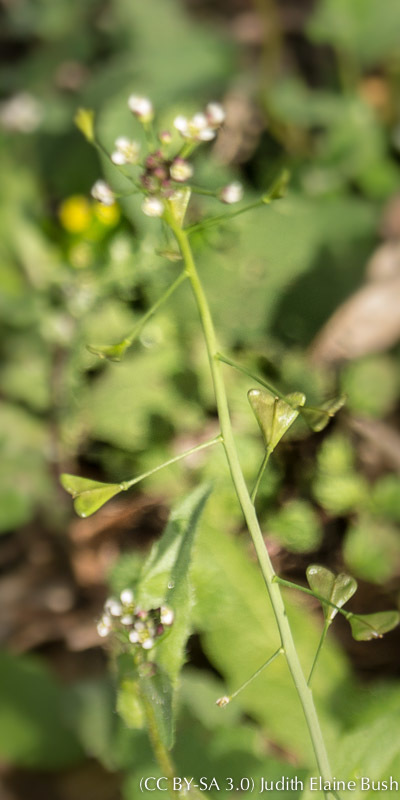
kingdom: Plantae
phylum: Tracheophyta
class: Magnoliopsida
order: Brassicales
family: Brassicaceae
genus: Capsella
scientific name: Capsella bursa-pastoris
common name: Shepherd's purse
